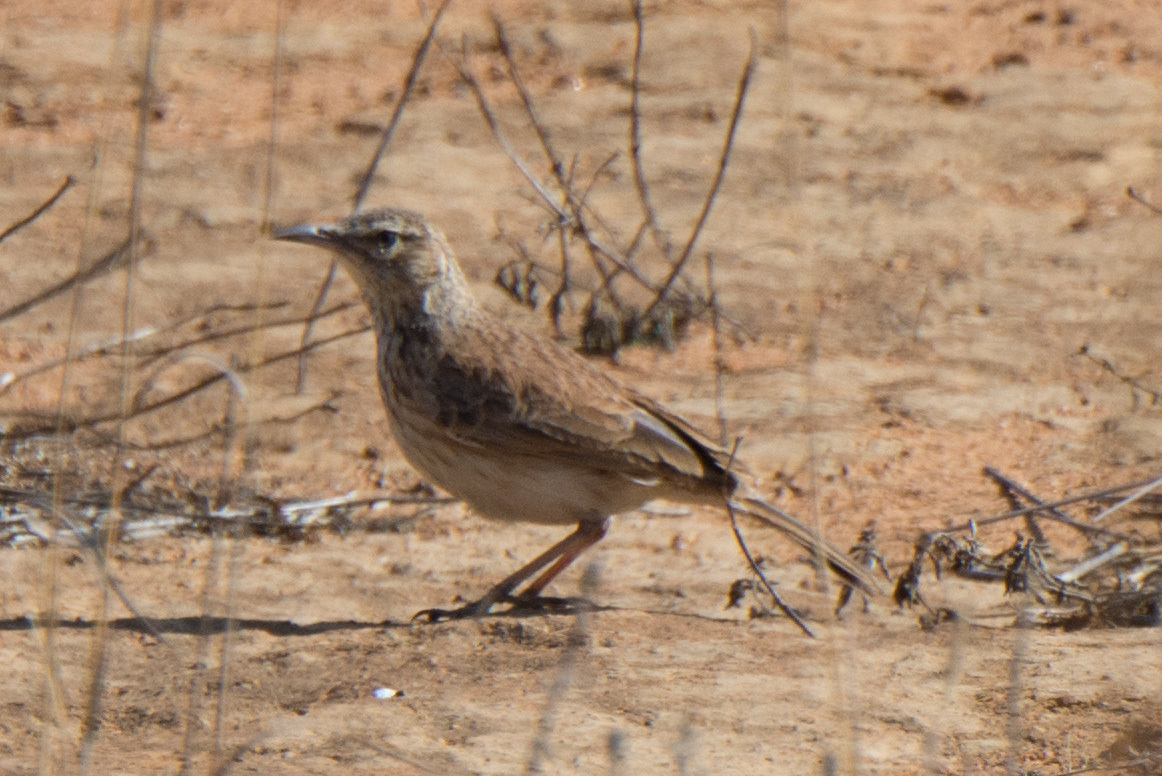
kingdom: Animalia
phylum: Chordata
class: Aves
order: Passeriformes
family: Alaudidae
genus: Certhilauda
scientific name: Certhilauda semitorquata
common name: Eastern long-billed lark
